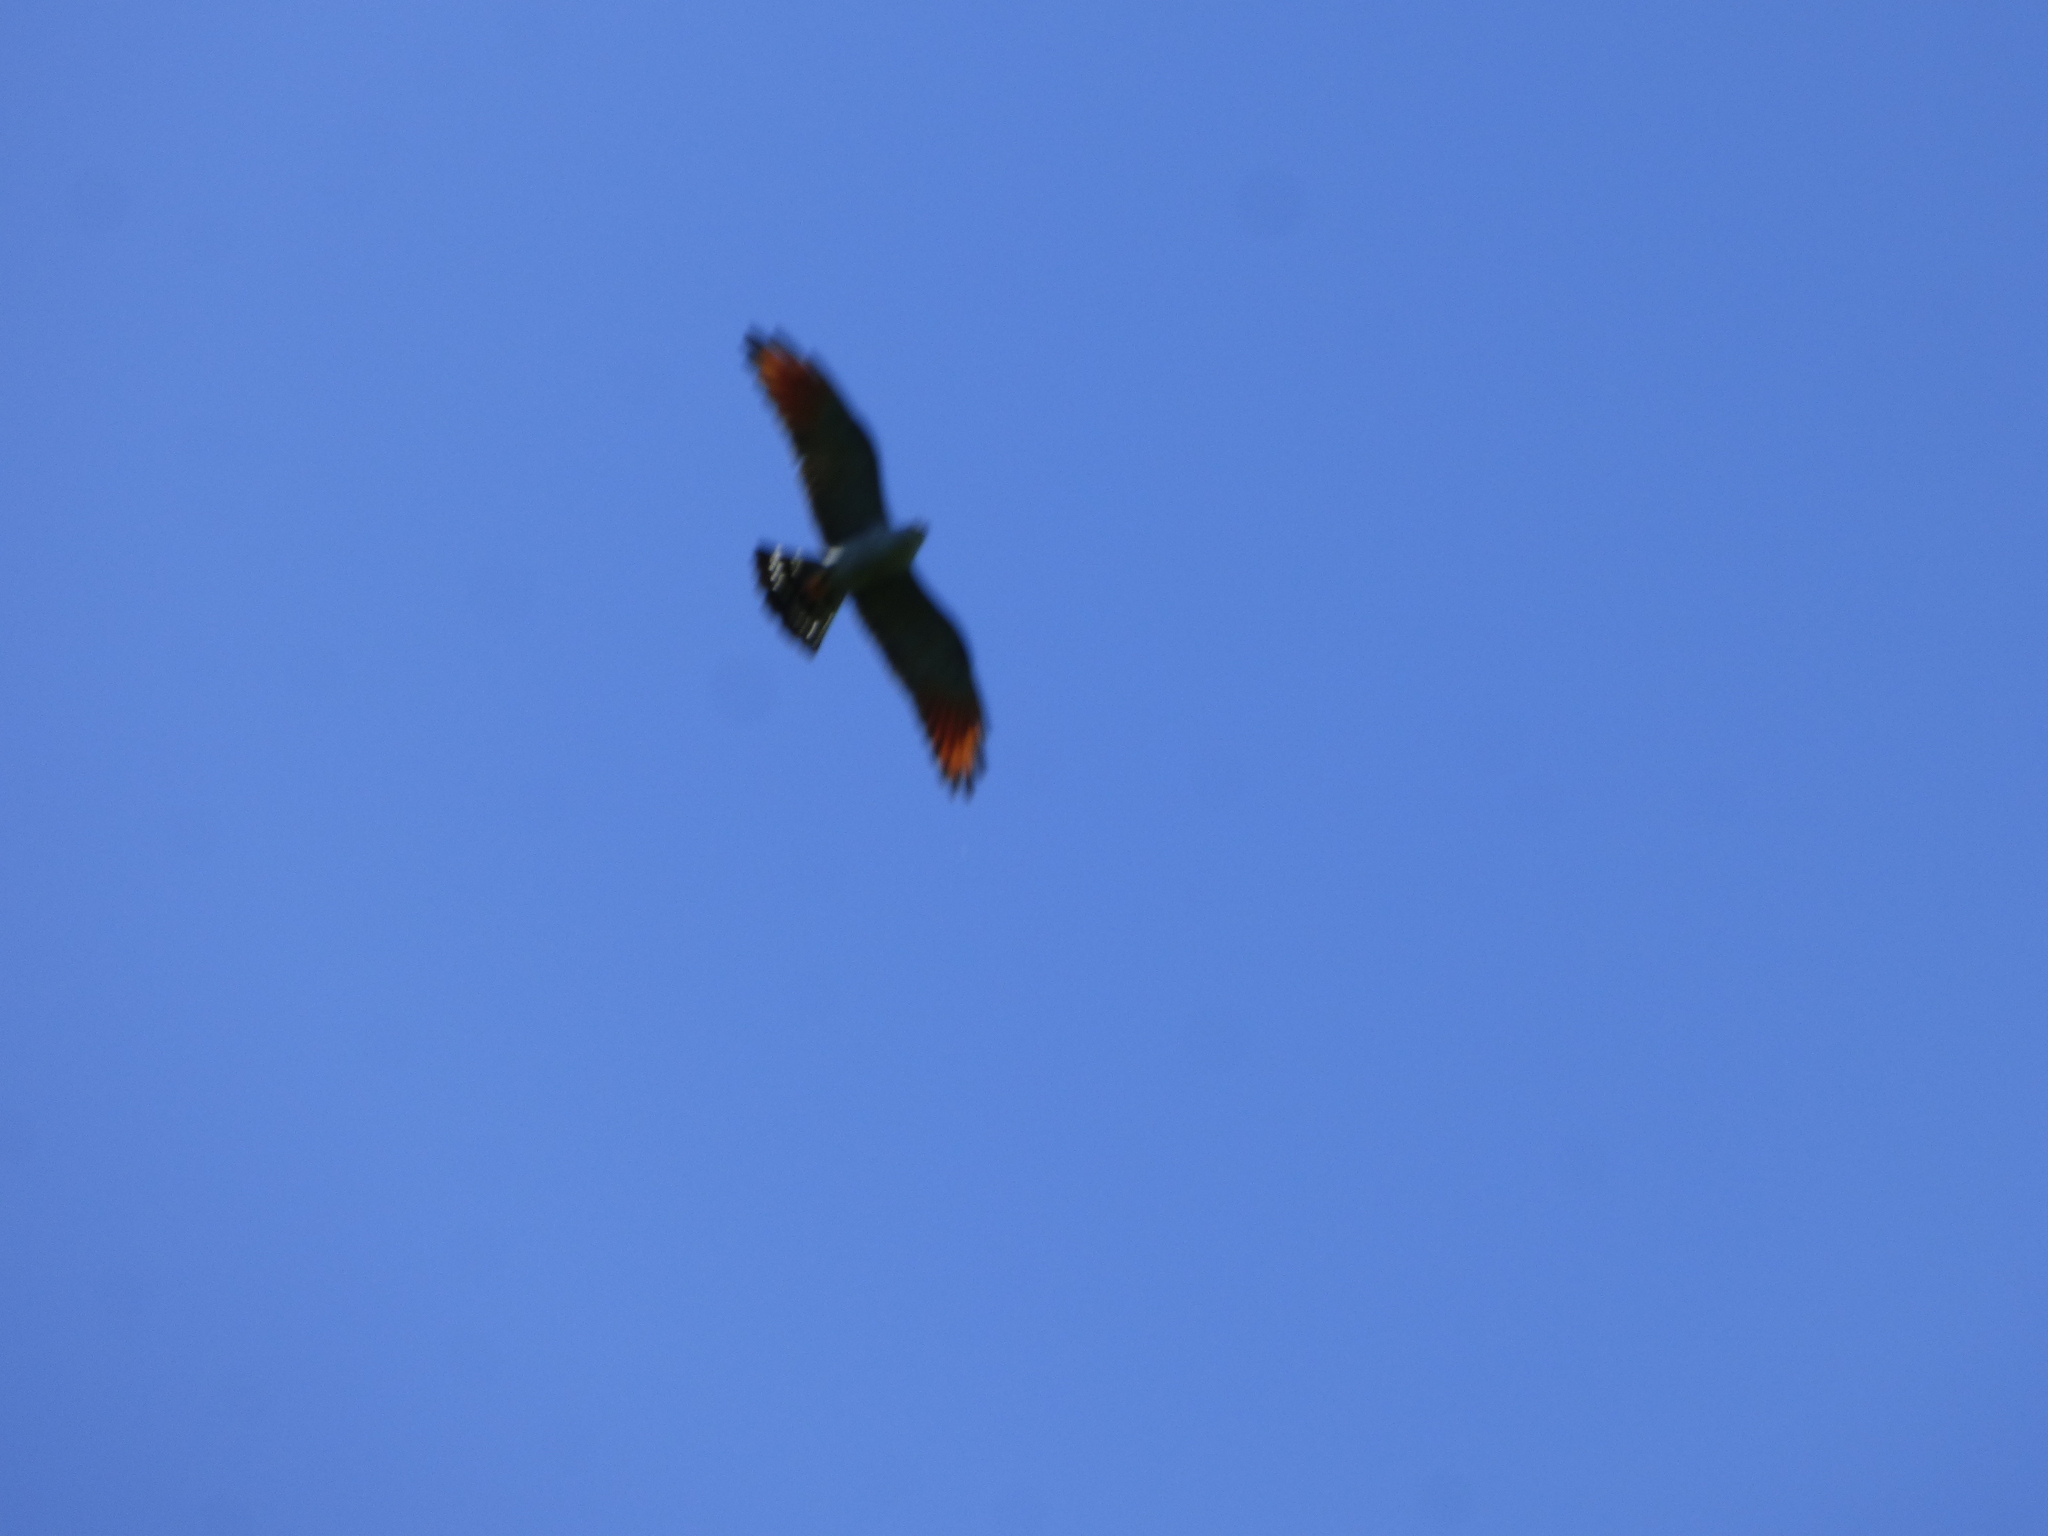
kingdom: Animalia
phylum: Chordata
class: Aves
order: Accipitriformes
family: Accipitridae
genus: Ictinia
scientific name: Ictinia plumbea
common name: Plumbeous kite
